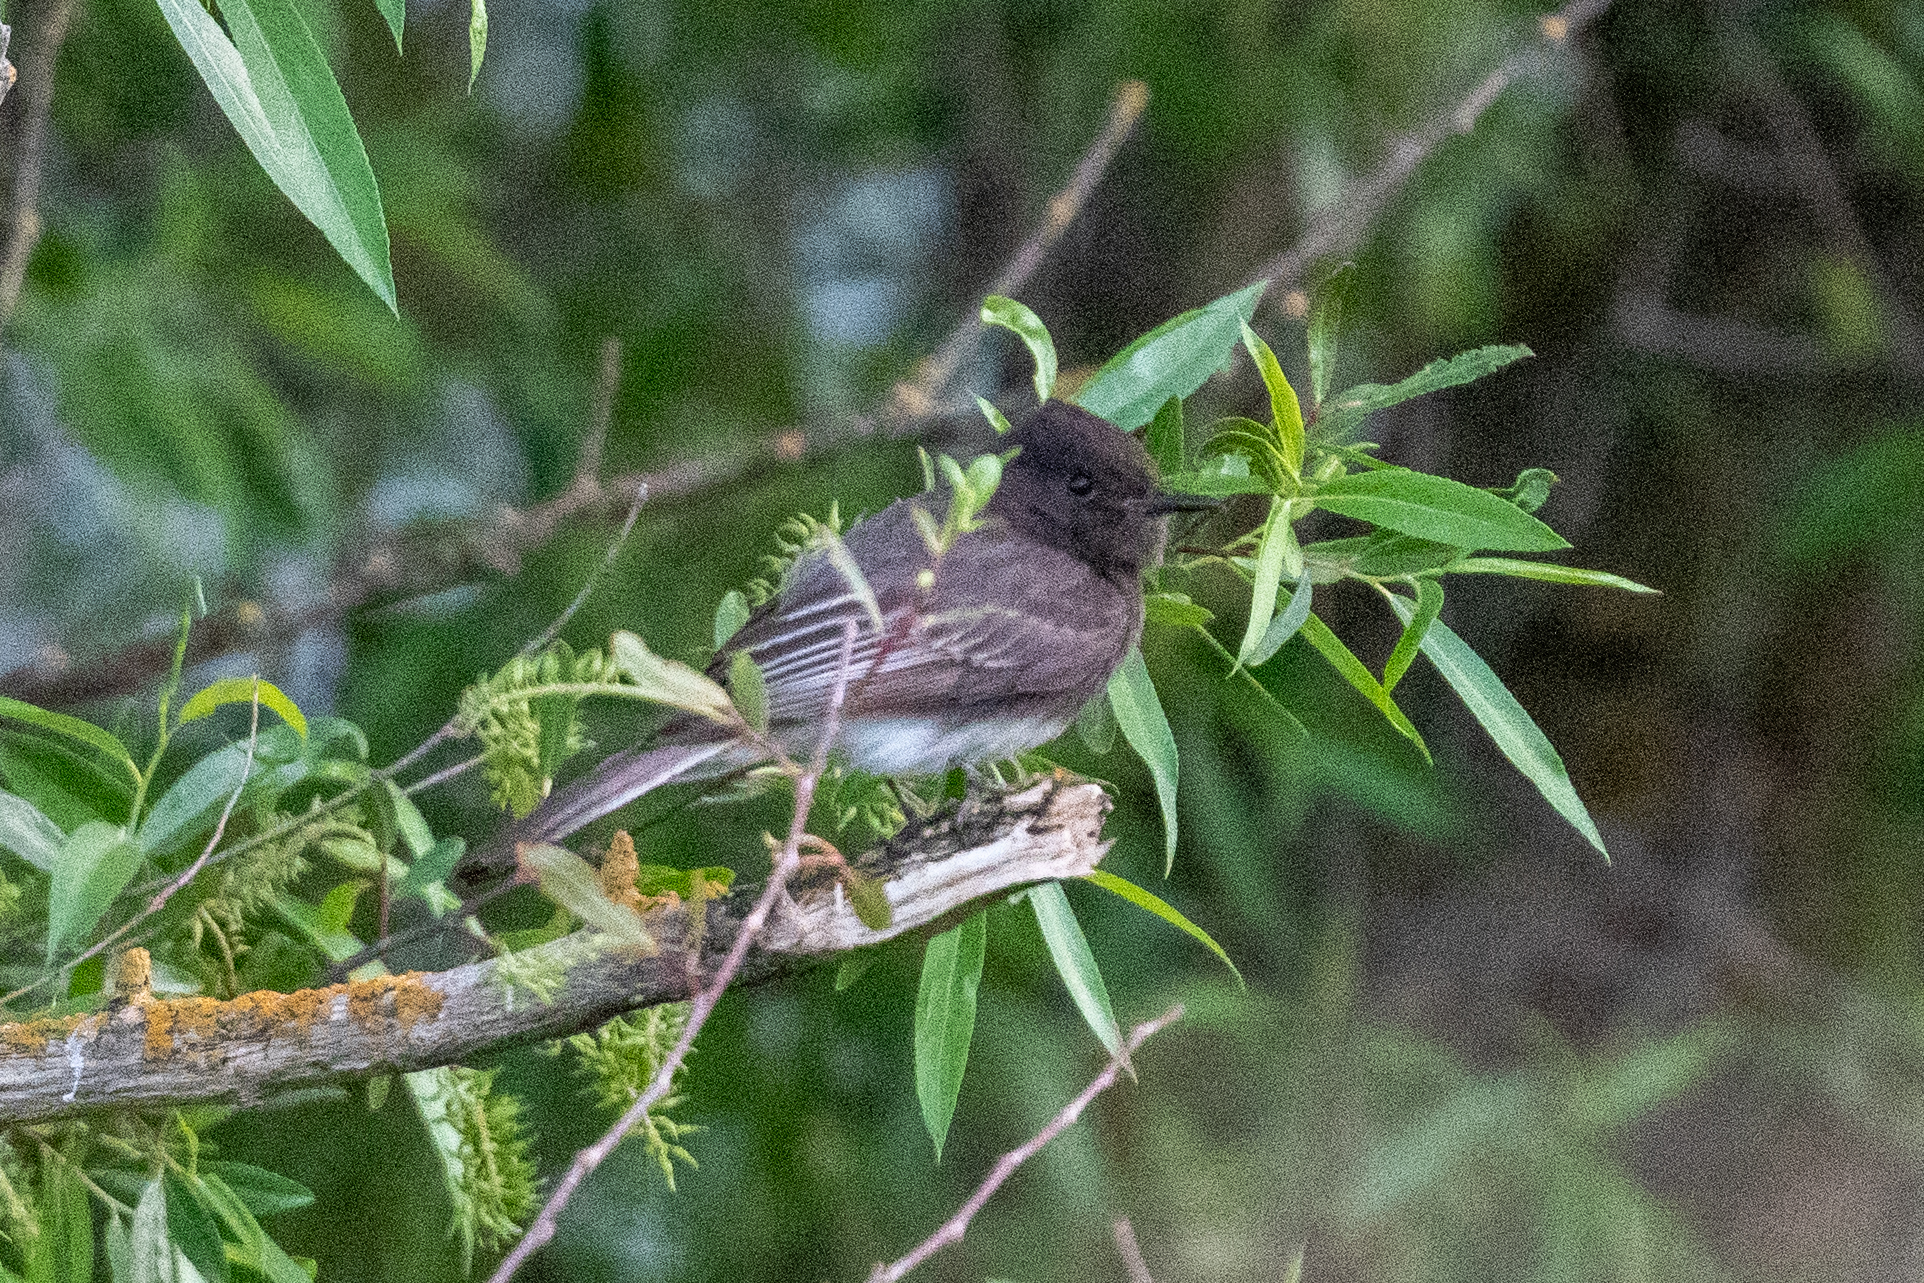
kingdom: Animalia
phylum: Chordata
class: Aves
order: Passeriformes
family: Tyrannidae
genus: Sayornis
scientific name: Sayornis nigricans
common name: Black phoebe
